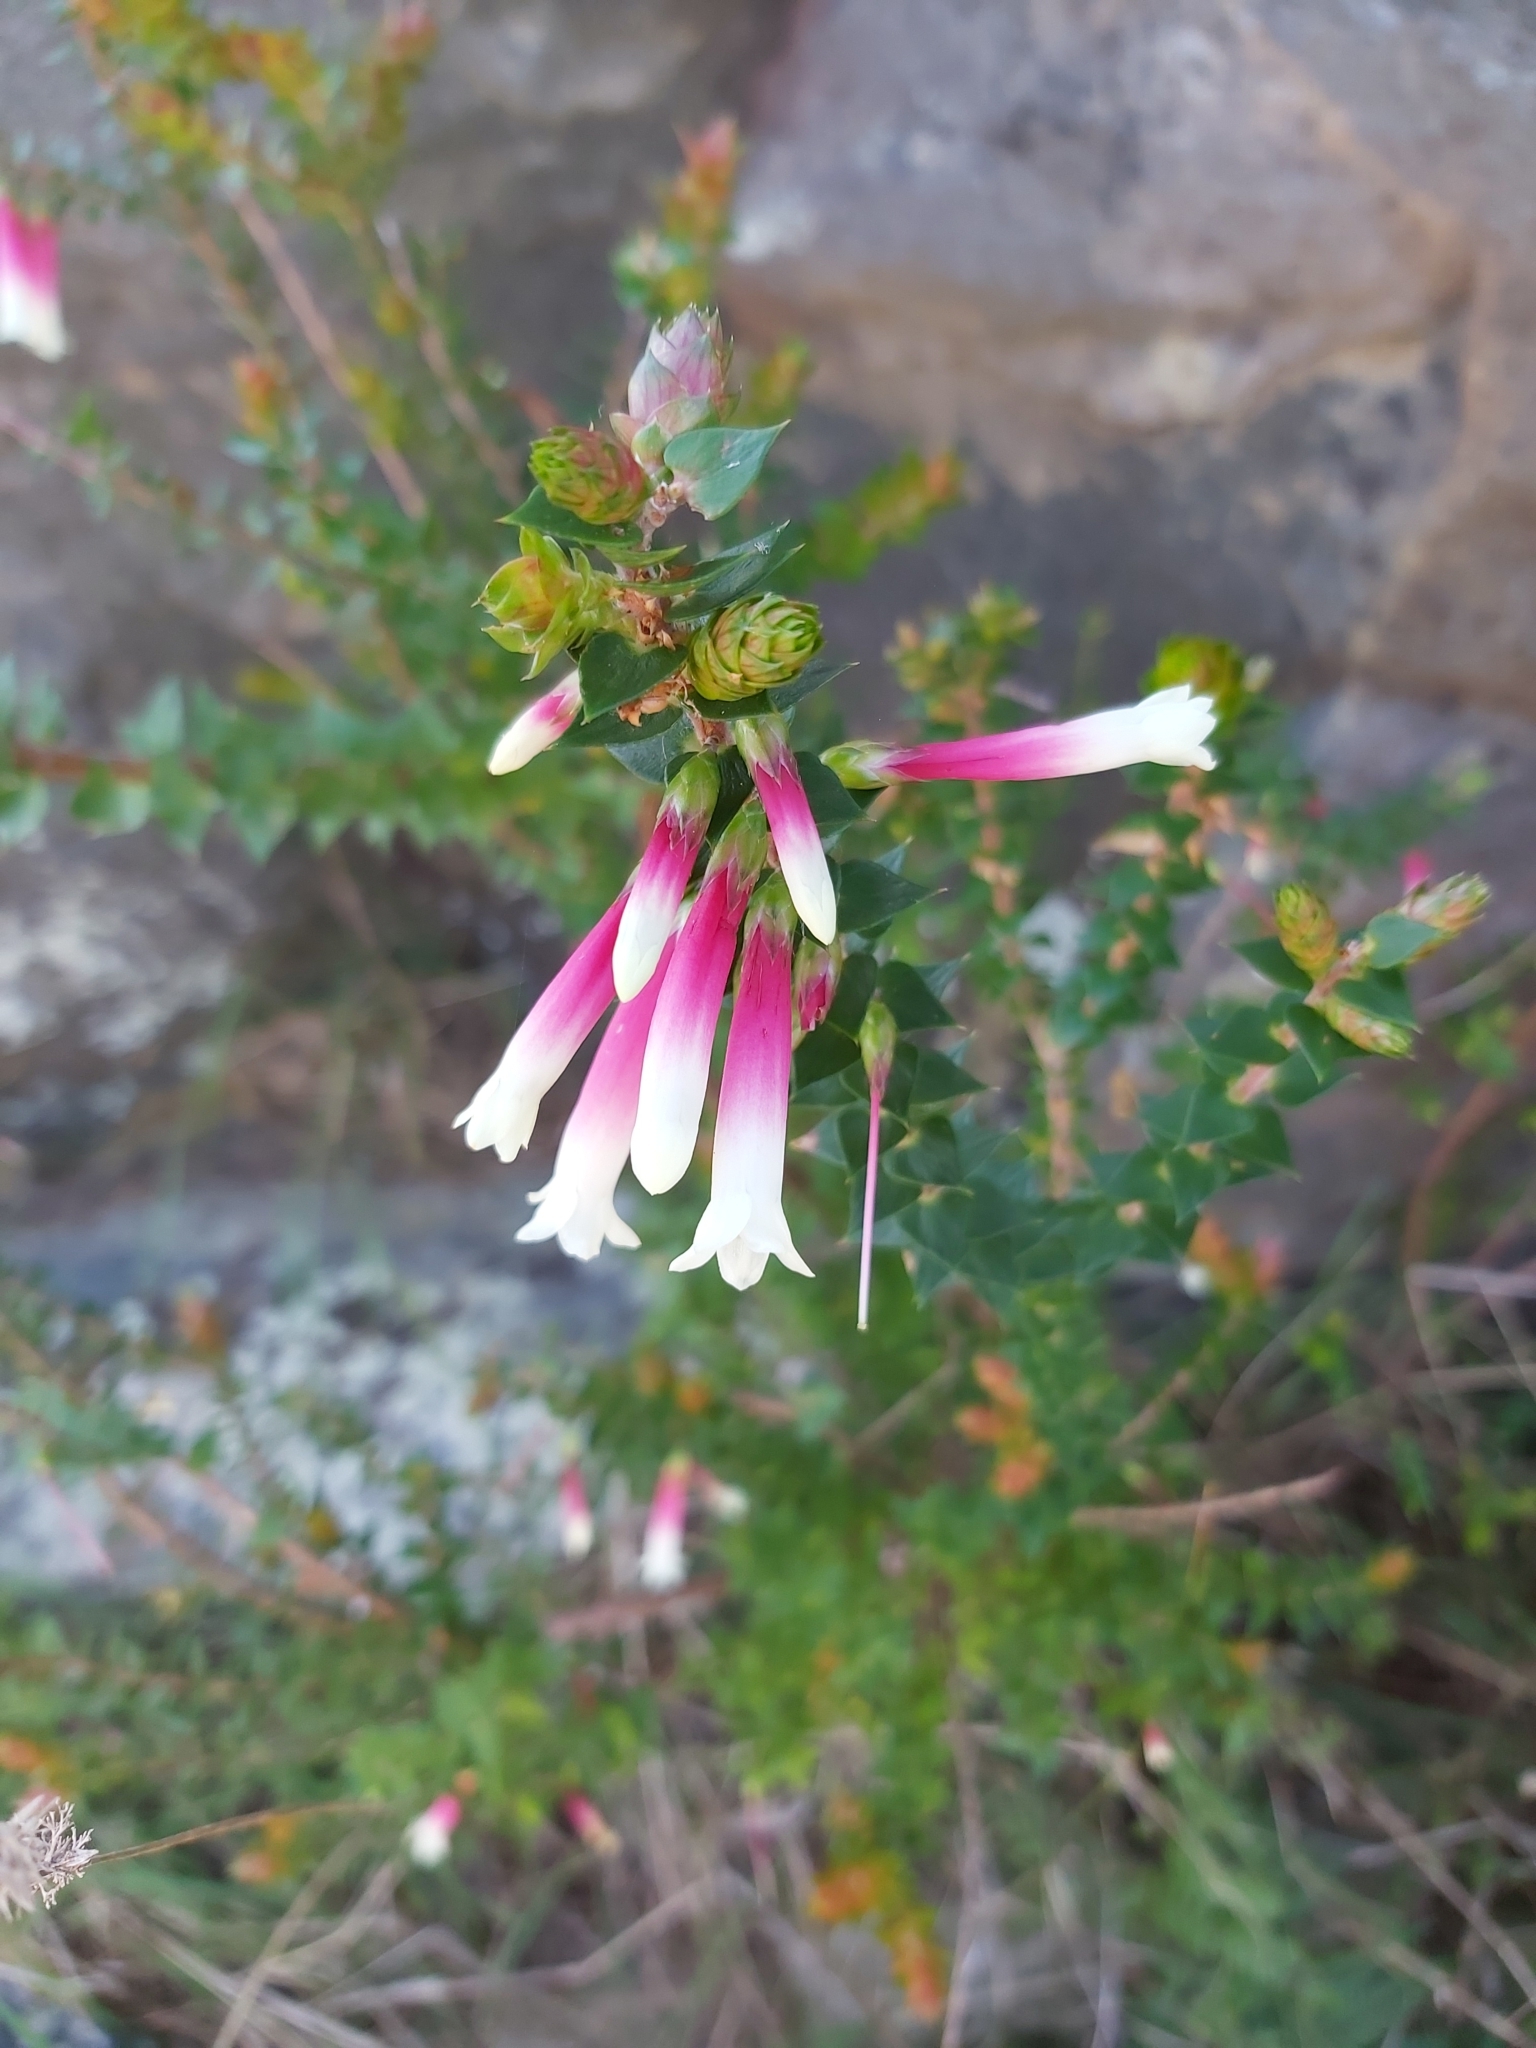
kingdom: Plantae
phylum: Tracheophyta
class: Magnoliopsida
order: Ericales
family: Ericaceae
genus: Epacris
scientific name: Epacris longiflora
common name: Fuchsia-heath
